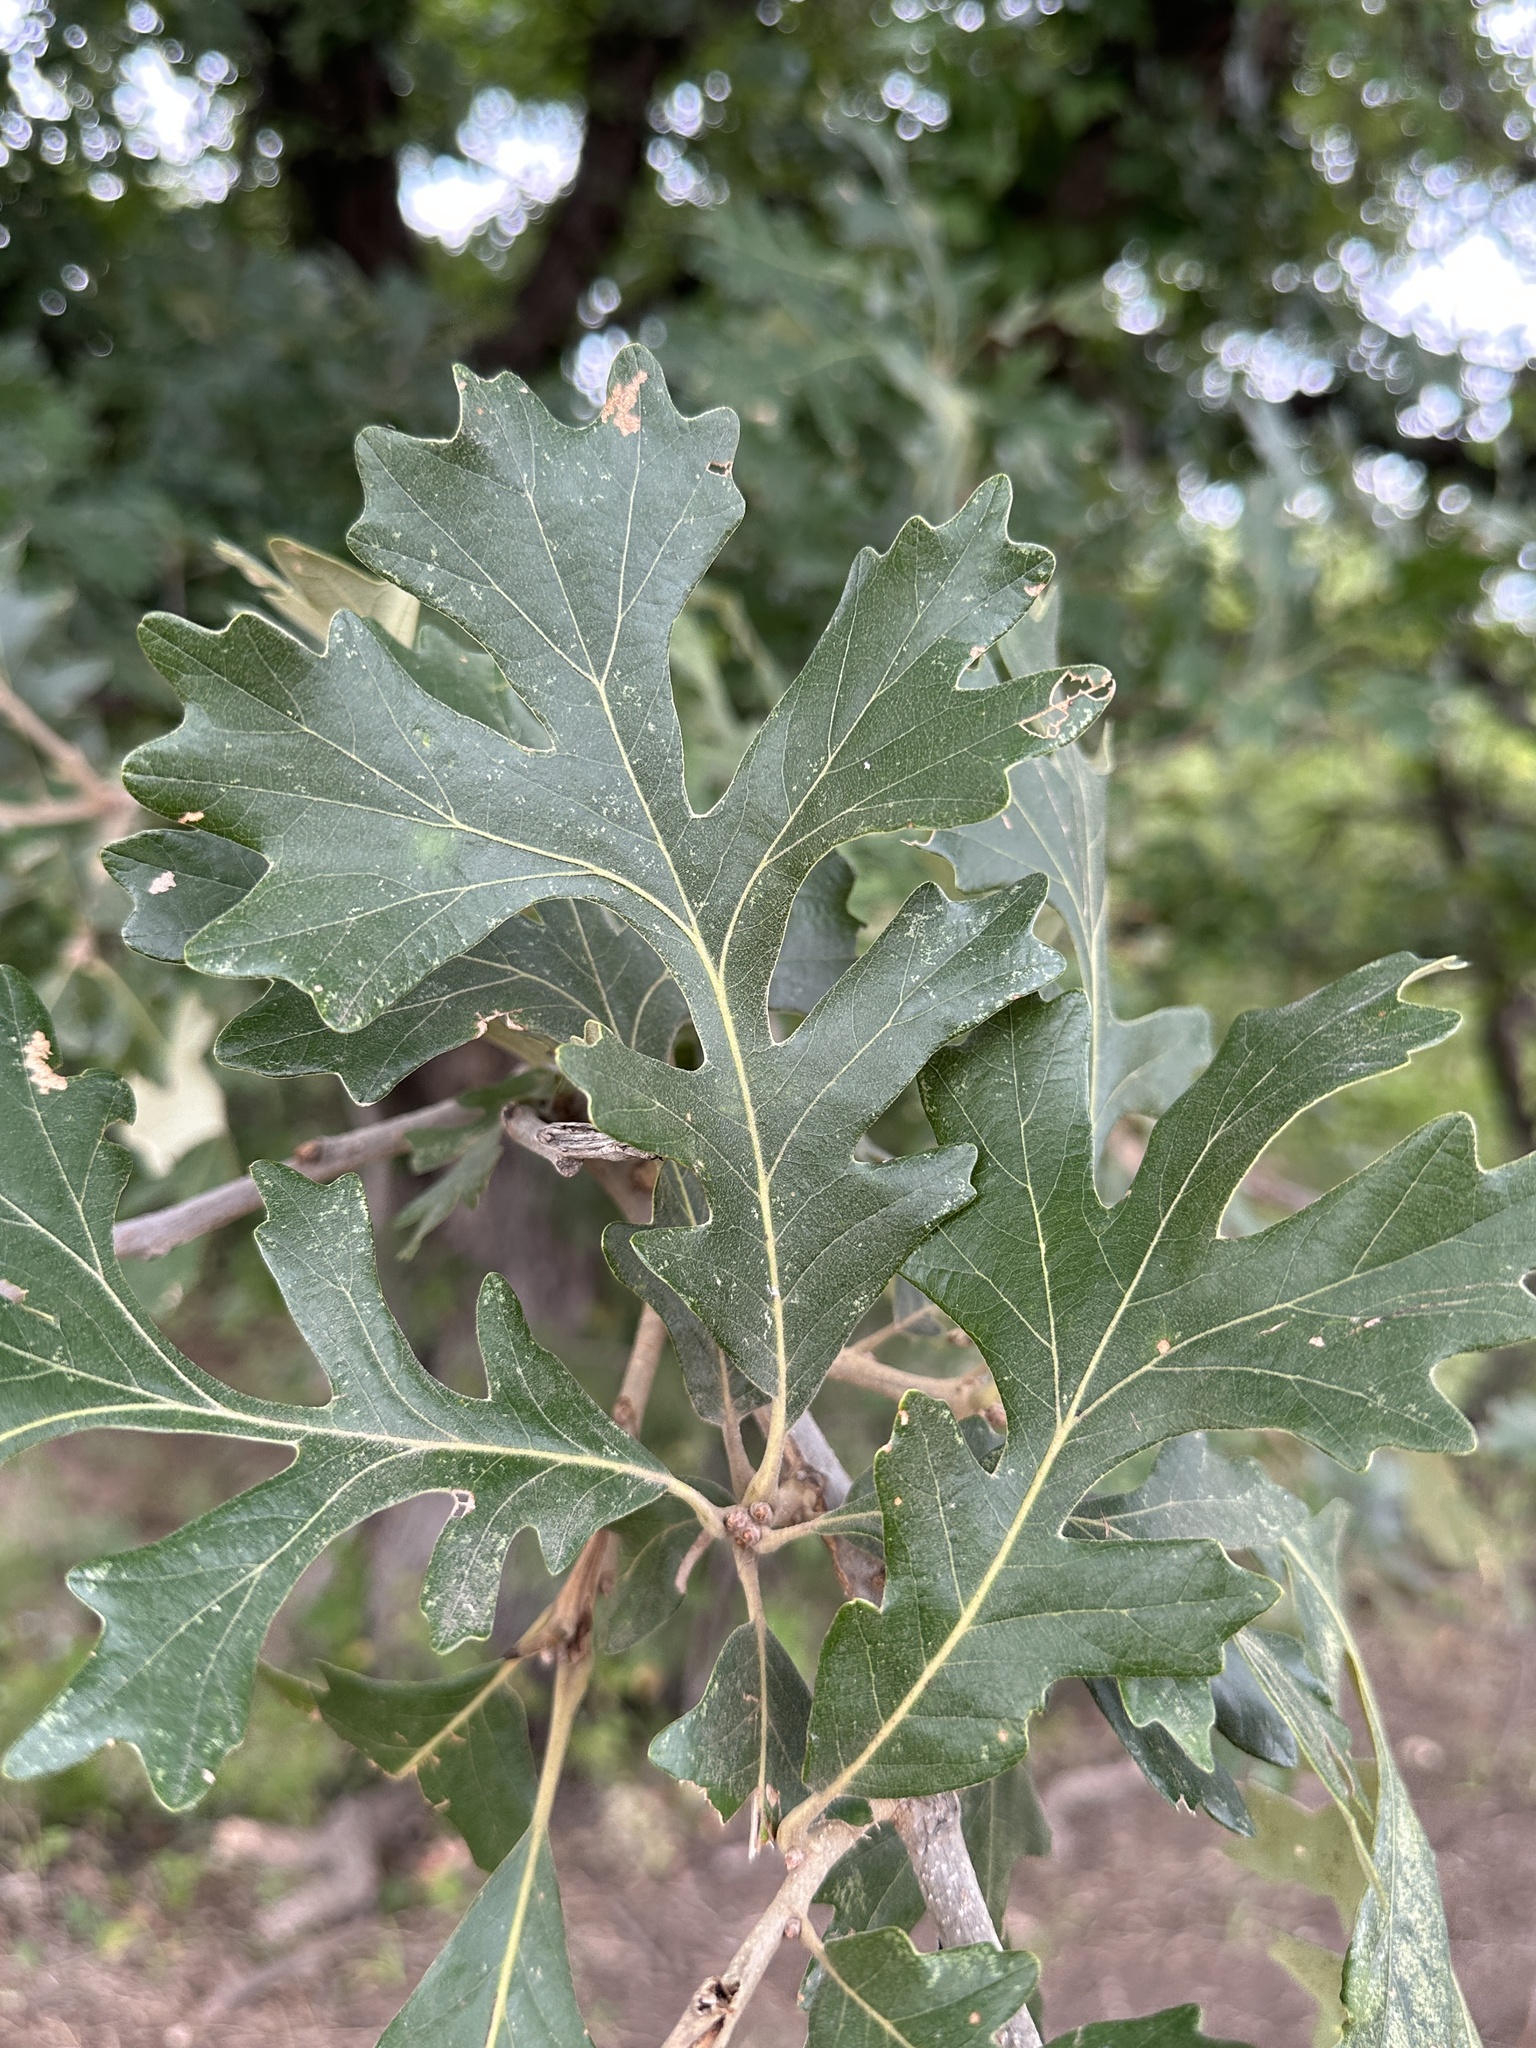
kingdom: Plantae
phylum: Tracheophyta
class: Magnoliopsida
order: Fagales
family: Fagaceae
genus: Quercus
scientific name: Quercus macrocarpa
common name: Bur oak
